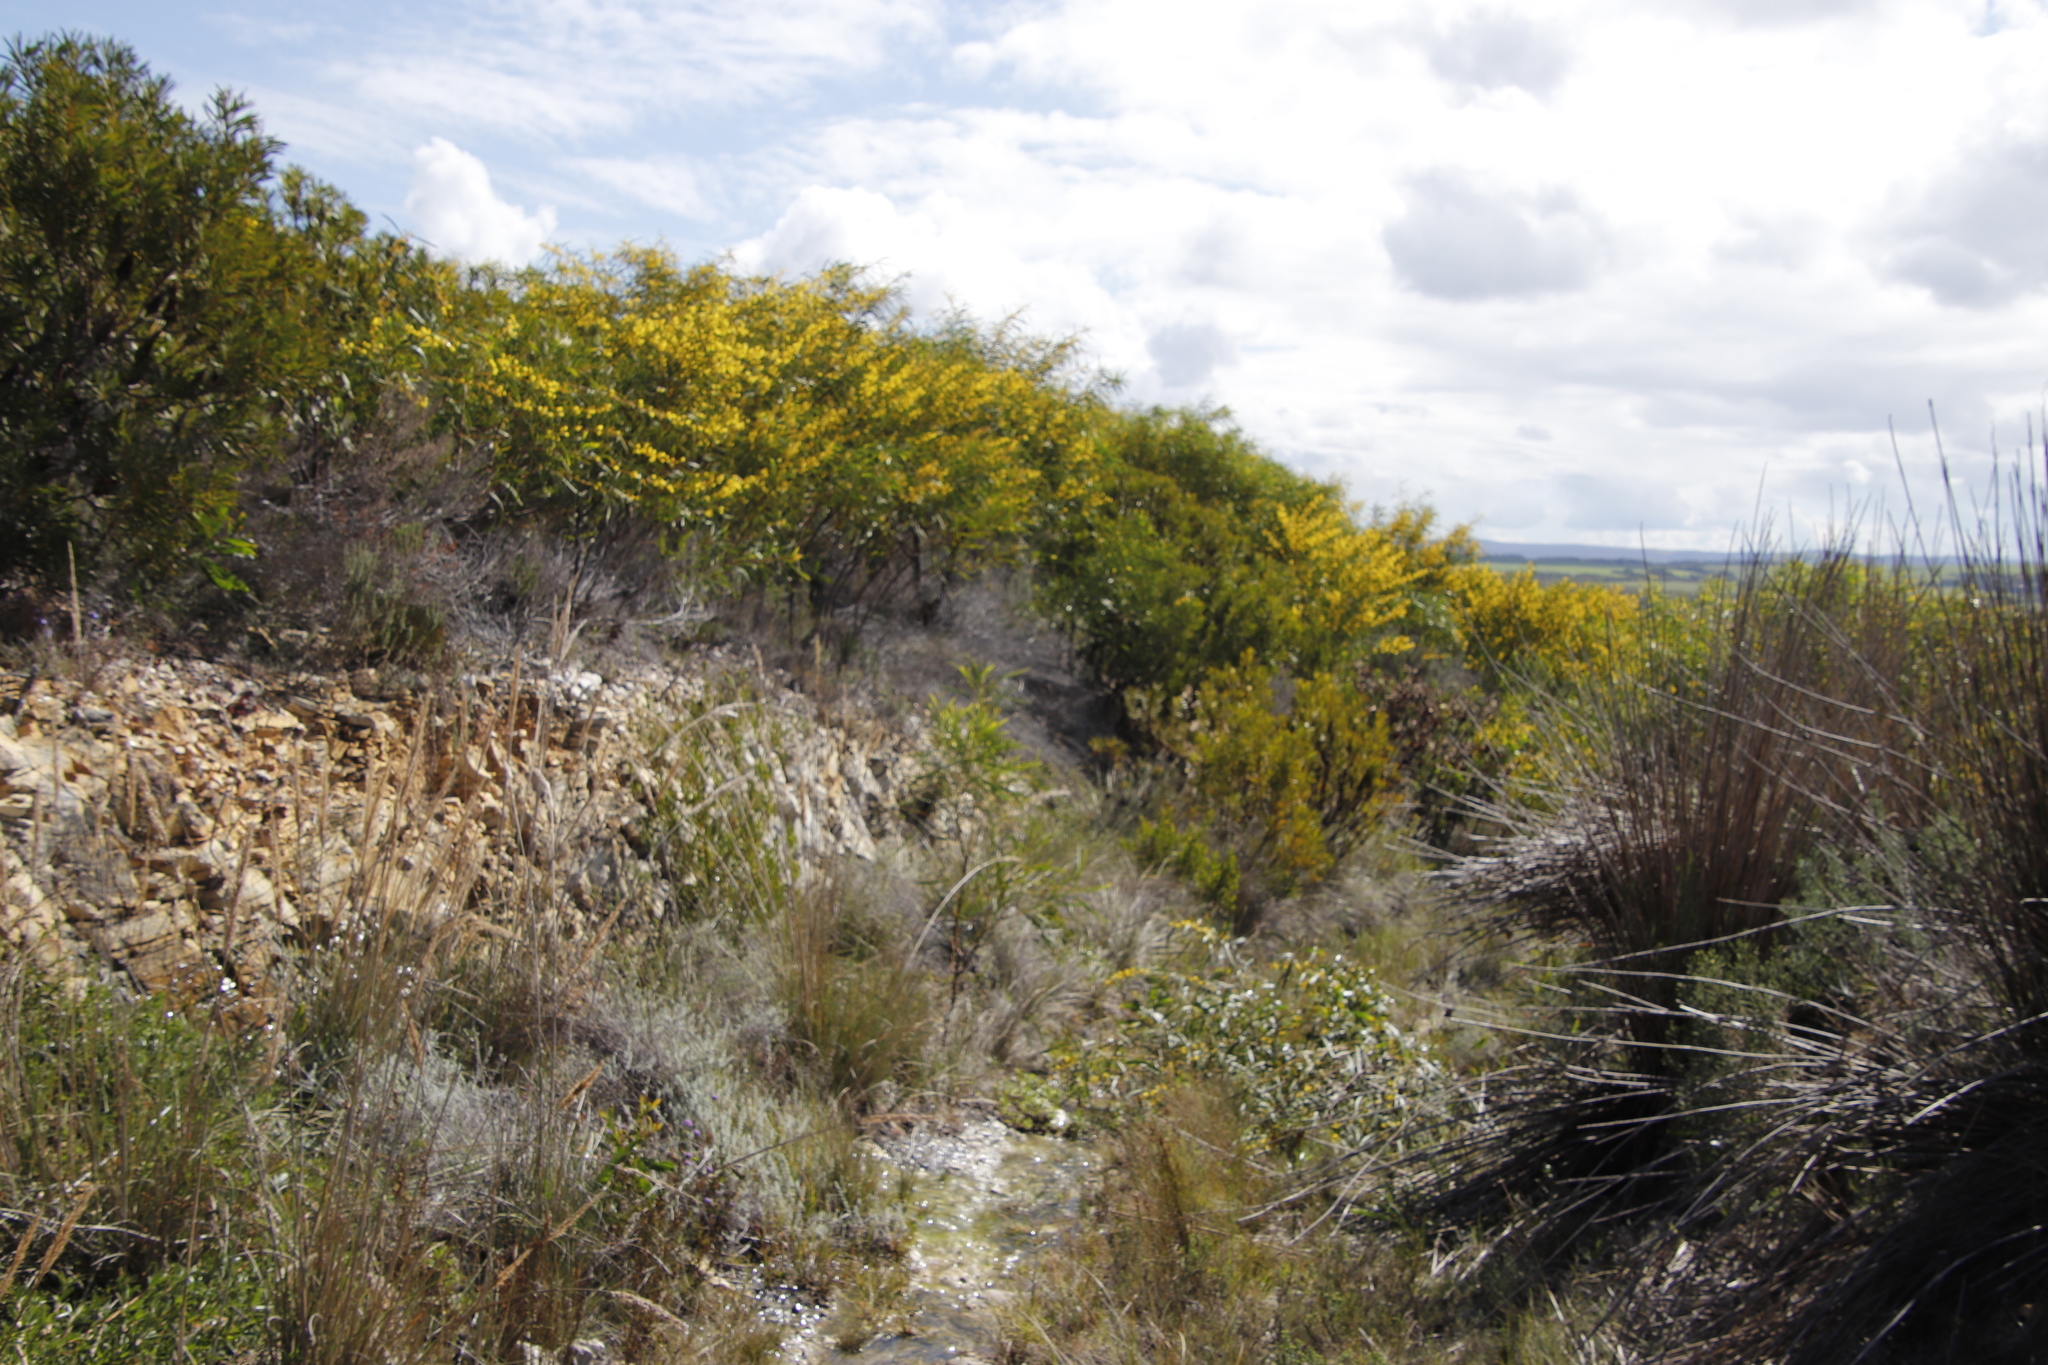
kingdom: Plantae
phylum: Tracheophyta
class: Magnoliopsida
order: Fabales
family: Fabaceae
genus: Acacia
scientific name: Acacia saligna
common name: Orange wattle
